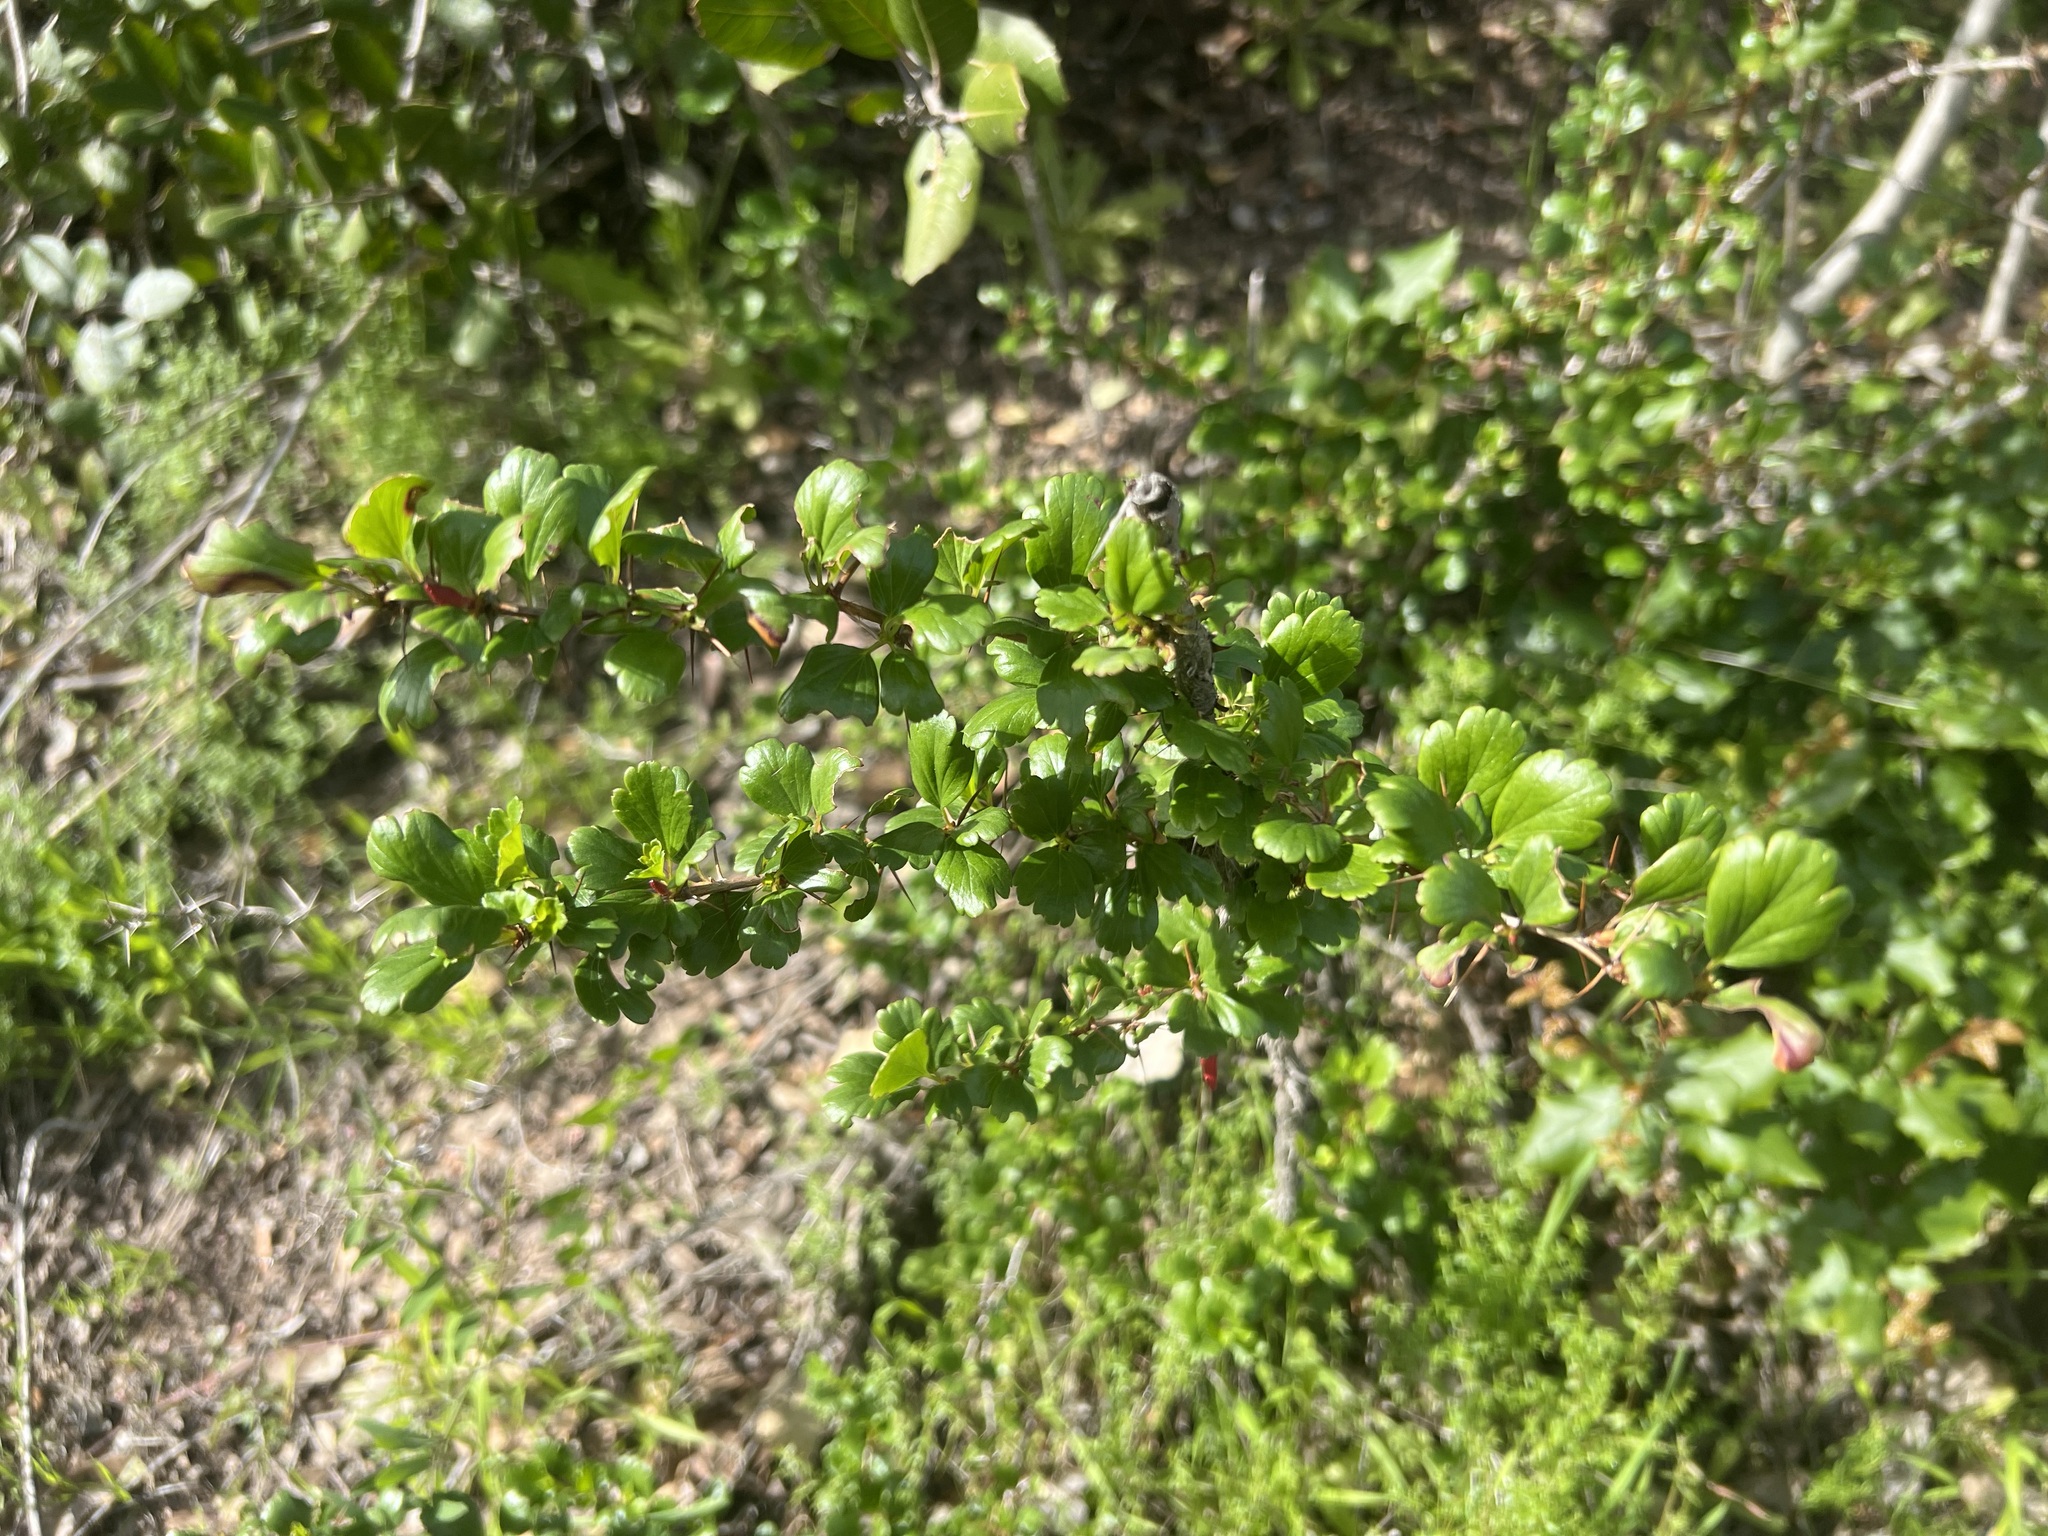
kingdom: Plantae
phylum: Tracheophyta
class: Magnoliopsida
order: Saxifragales
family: Grossulariaceae
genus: Ribes
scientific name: Ribes speciosum
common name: Fuchsia-flower gooseberry
